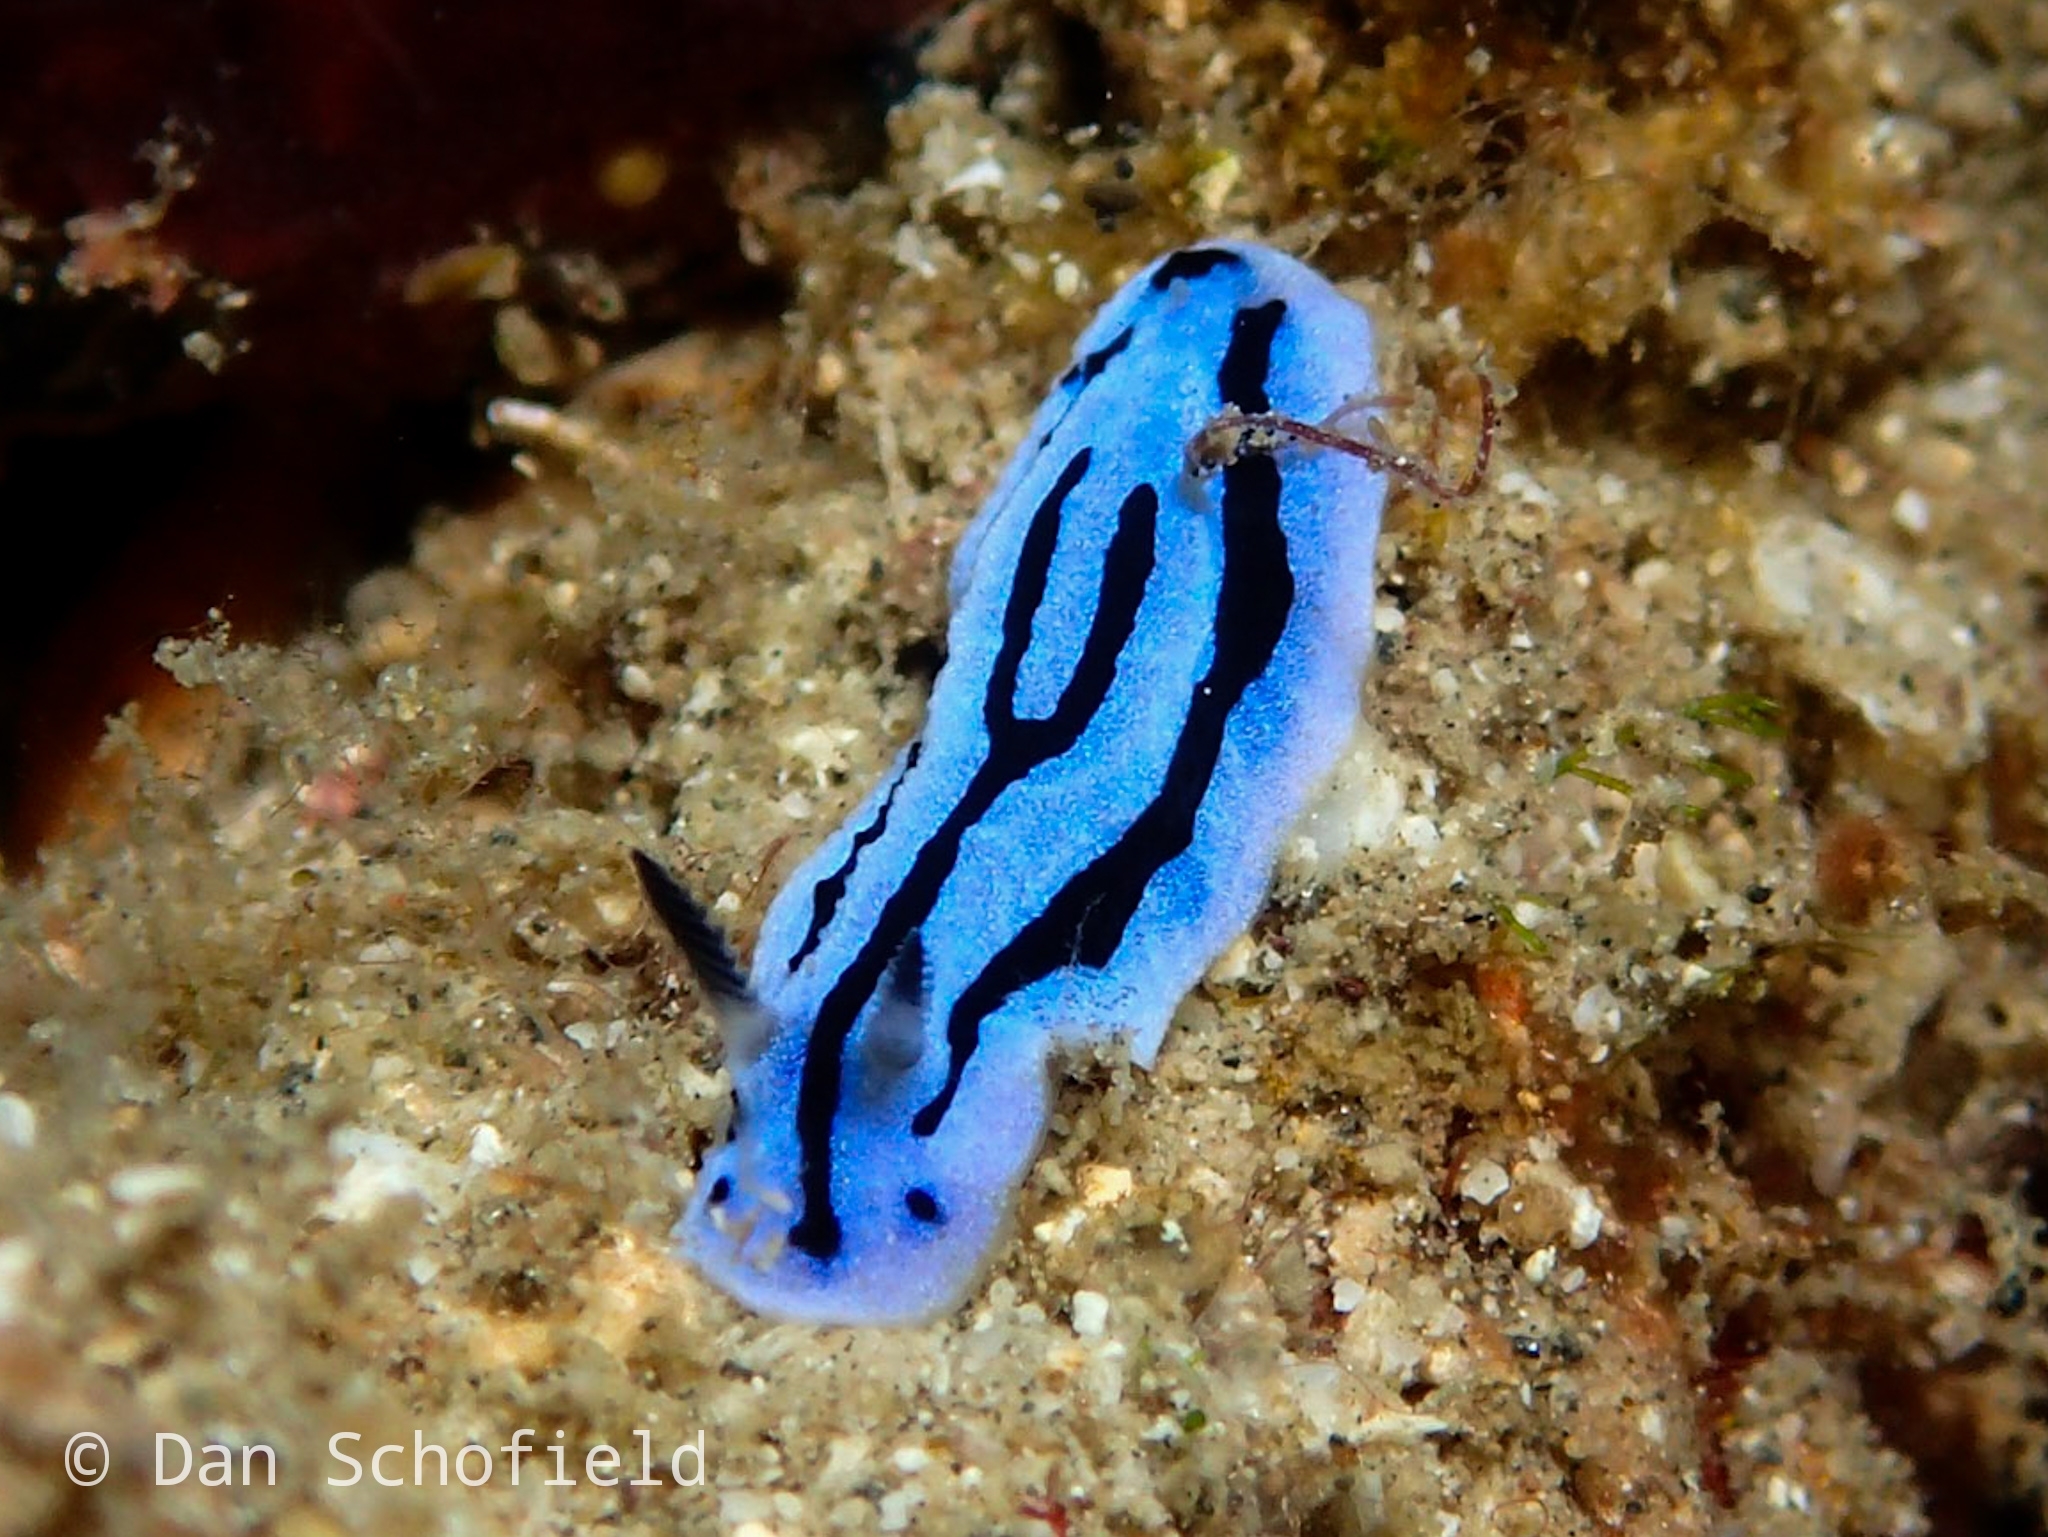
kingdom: Animalia
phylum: Mollusca
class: Gastropoda
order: Nudibranchia
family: Phyllidiidae
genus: Phyllidiopsis
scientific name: Phyllidiopsis annae
